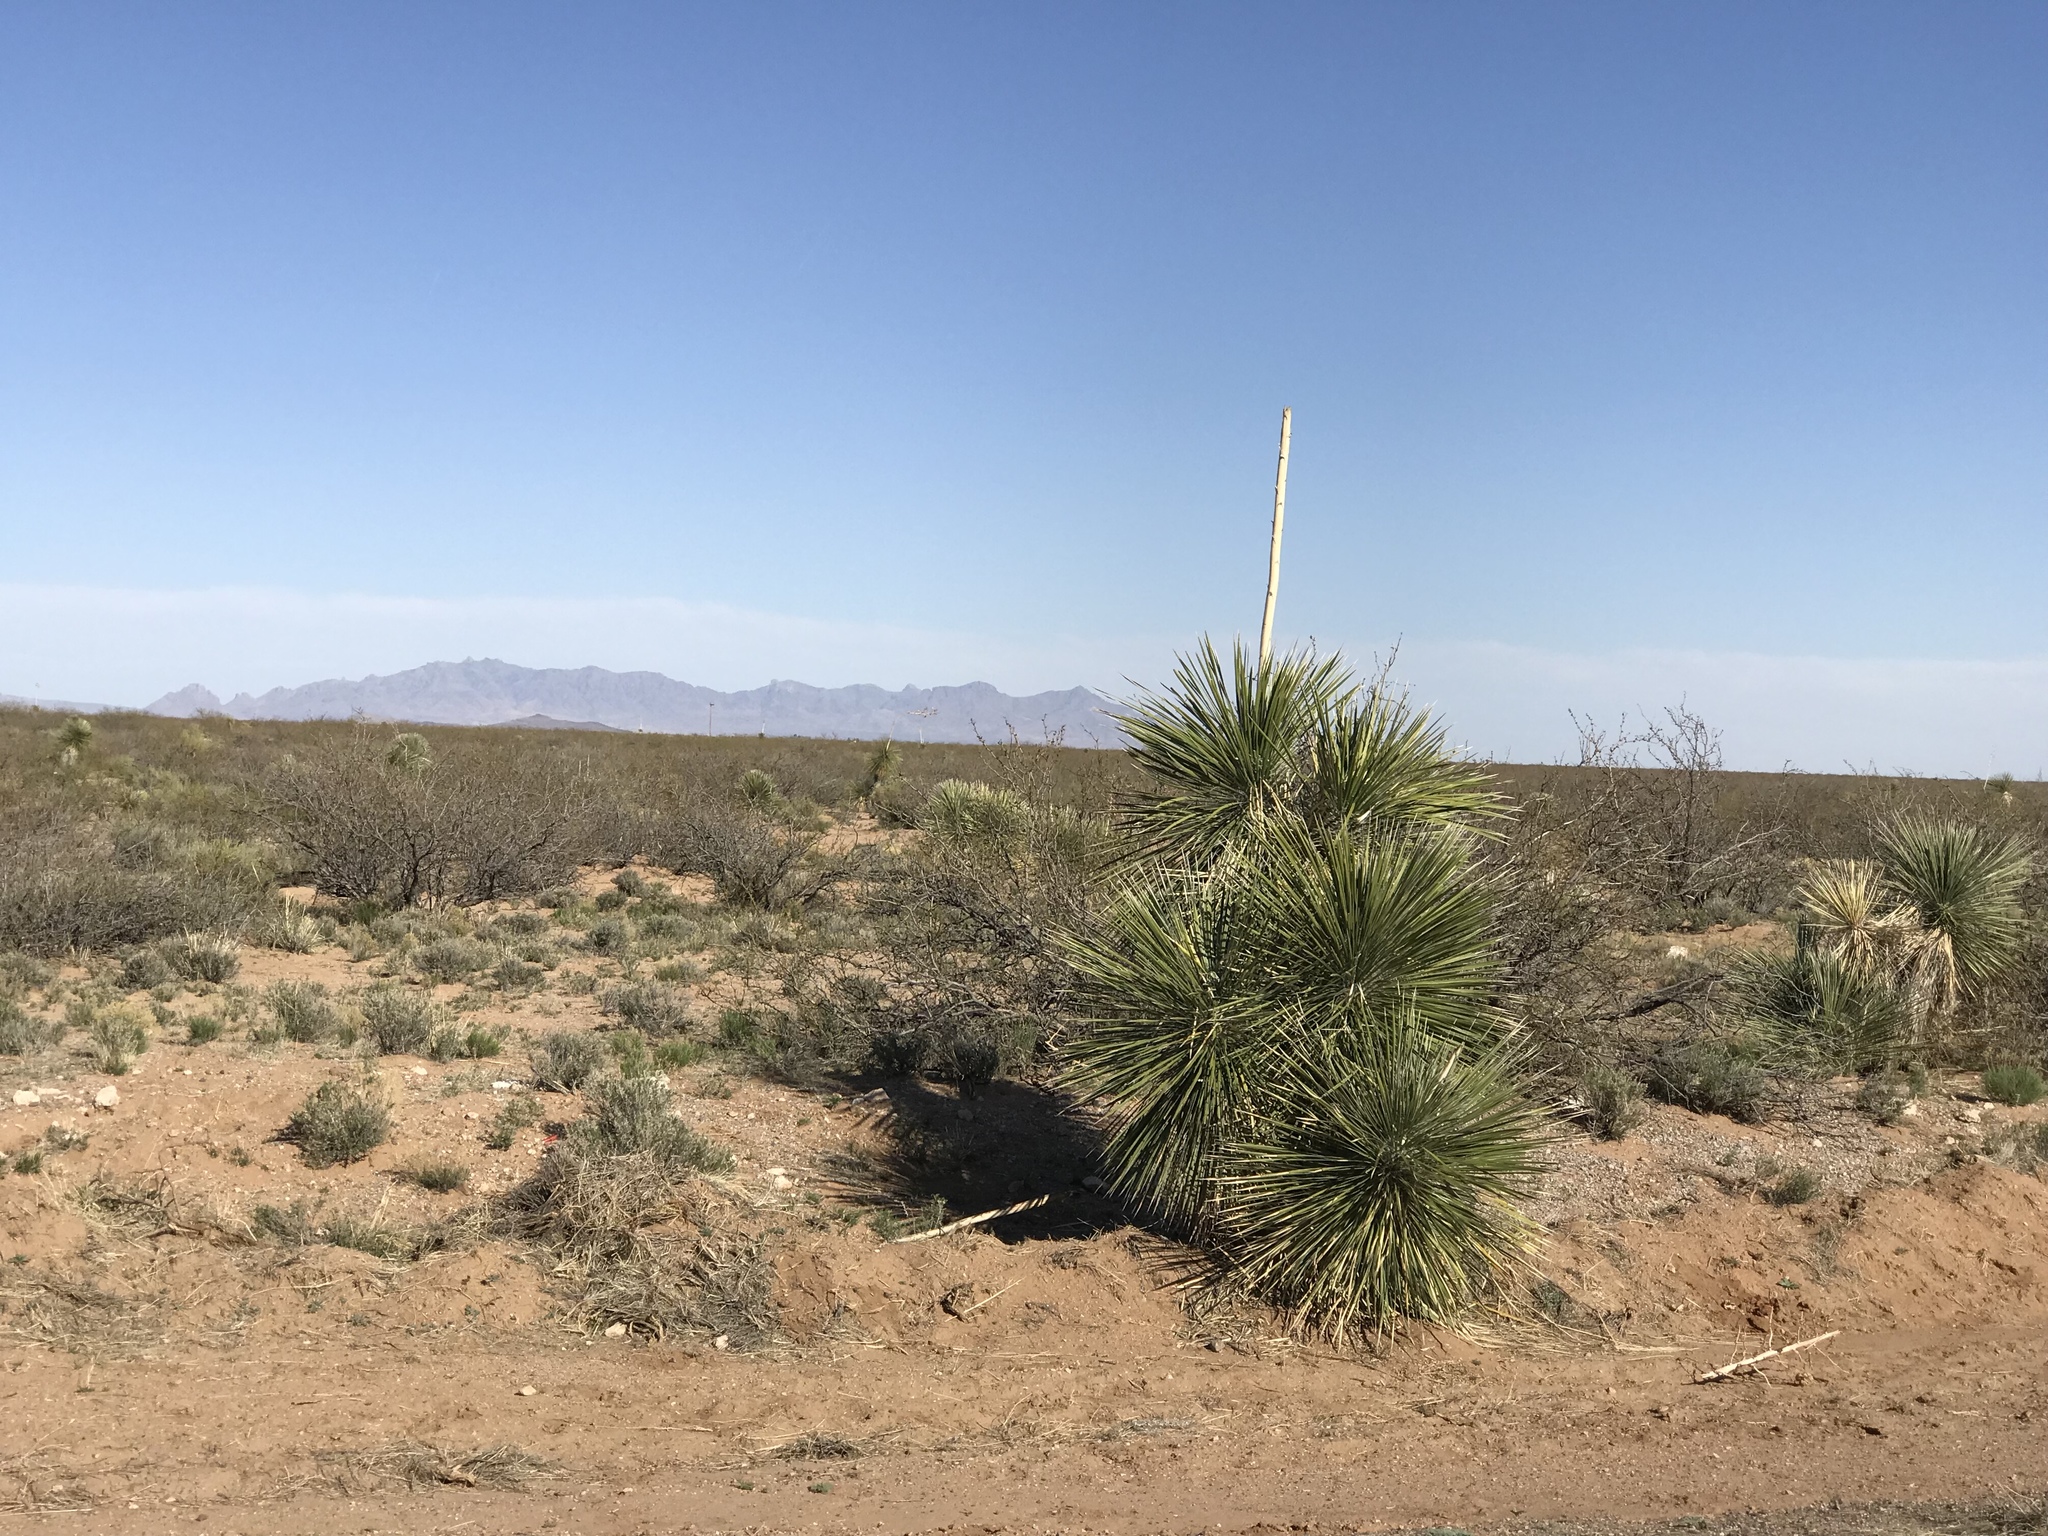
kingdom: Plantae
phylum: Tracheophyta
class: Liliopsida
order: Asparagales
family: Asparagaceae
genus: Yucca
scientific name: Yucca elata
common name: Palmella
